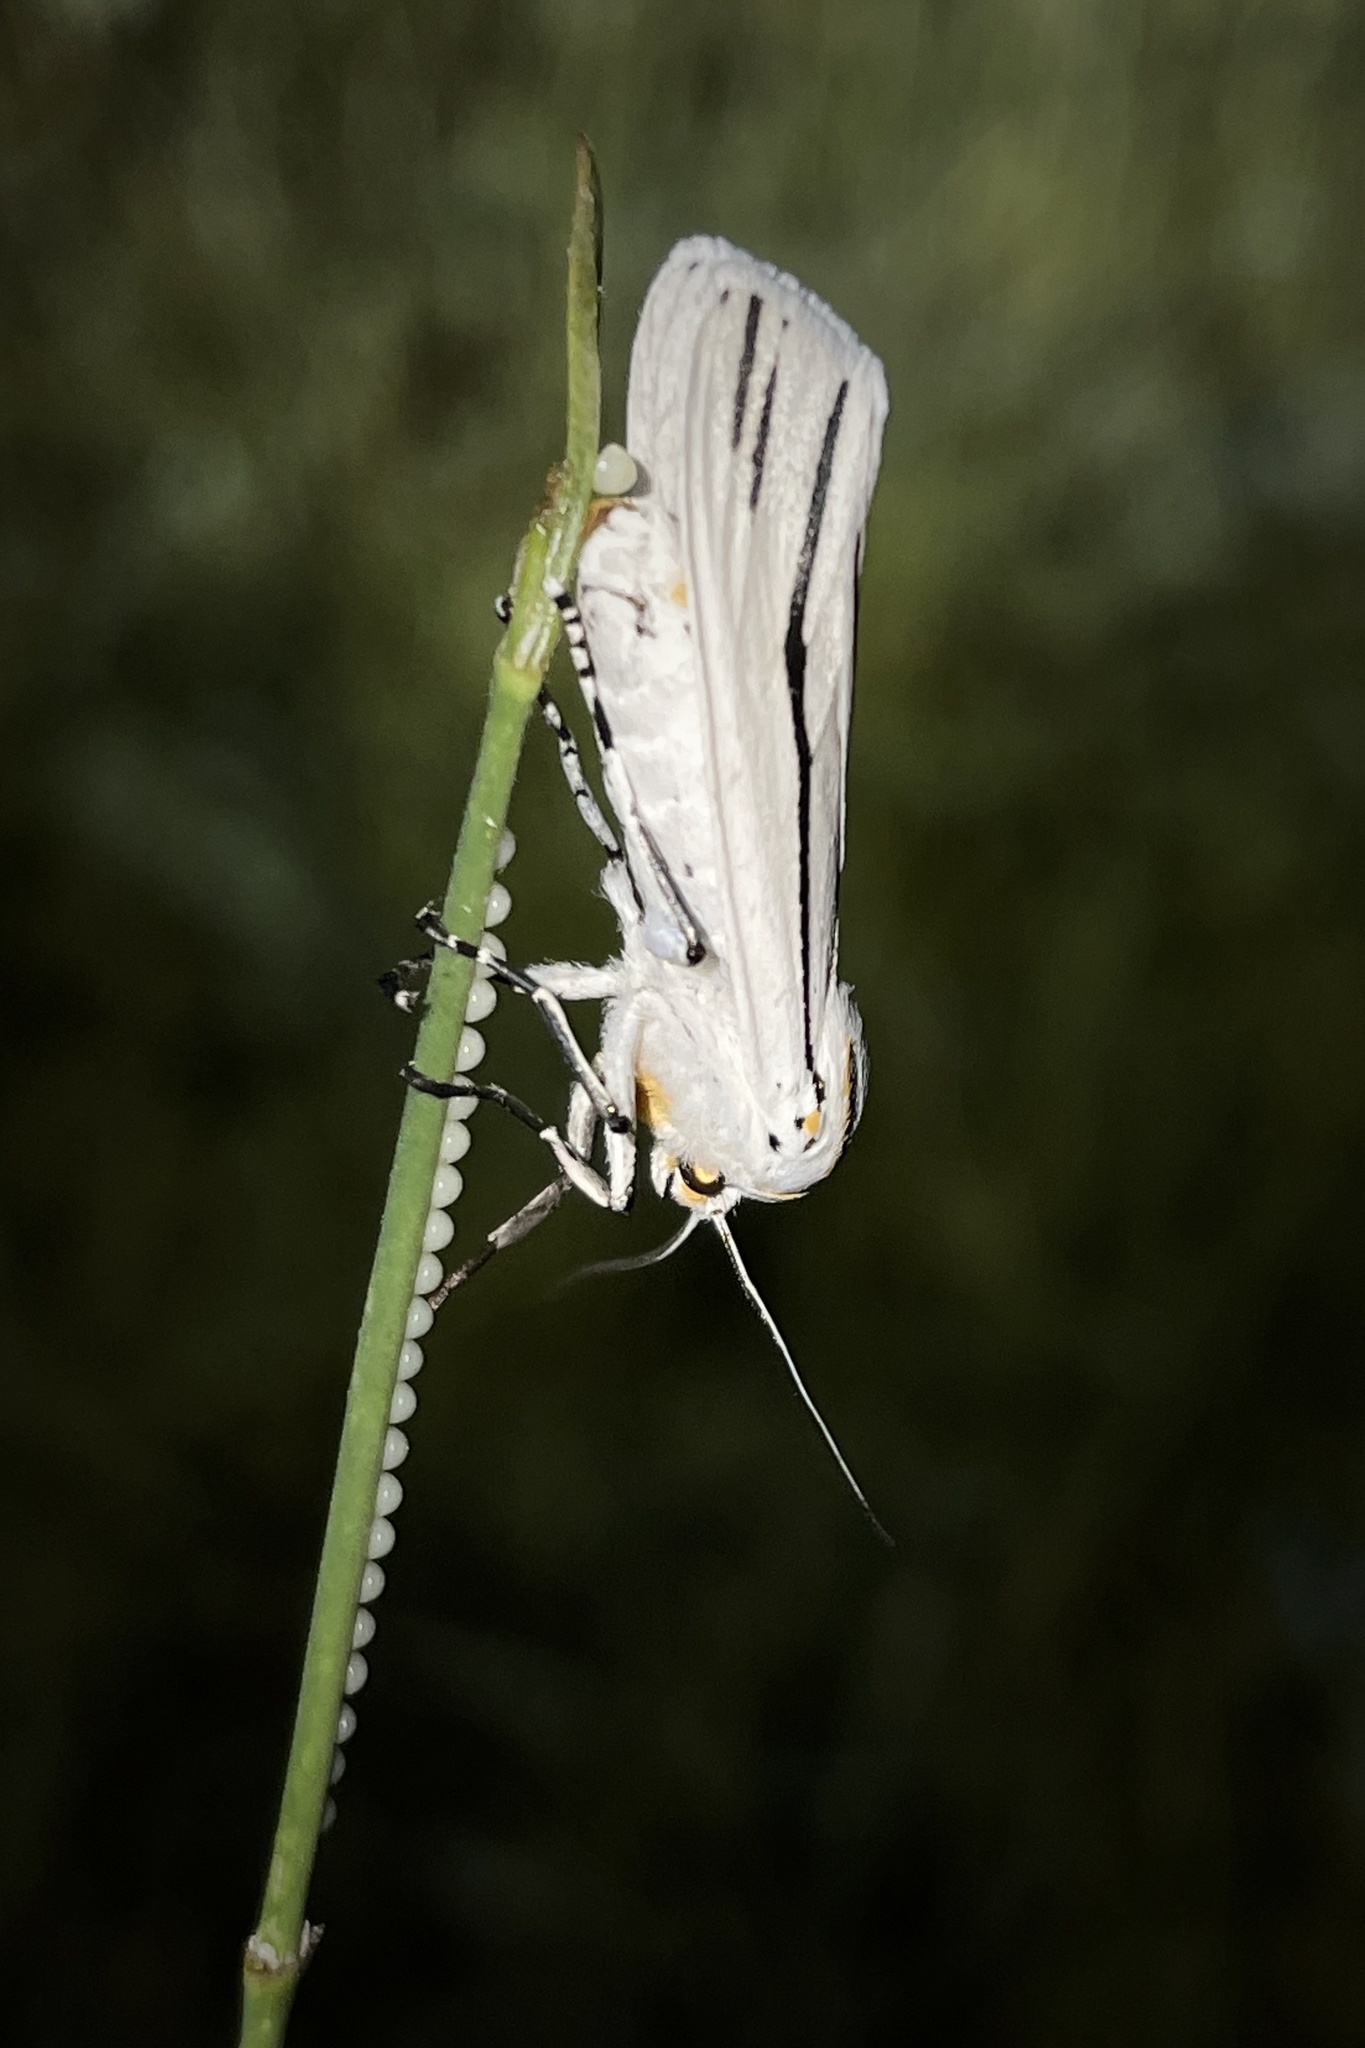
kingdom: Animalia
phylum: Arthropoda
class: Insecta
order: Lepidoptera
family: Erebidae
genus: Ectypia
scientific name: Ectypia clio
